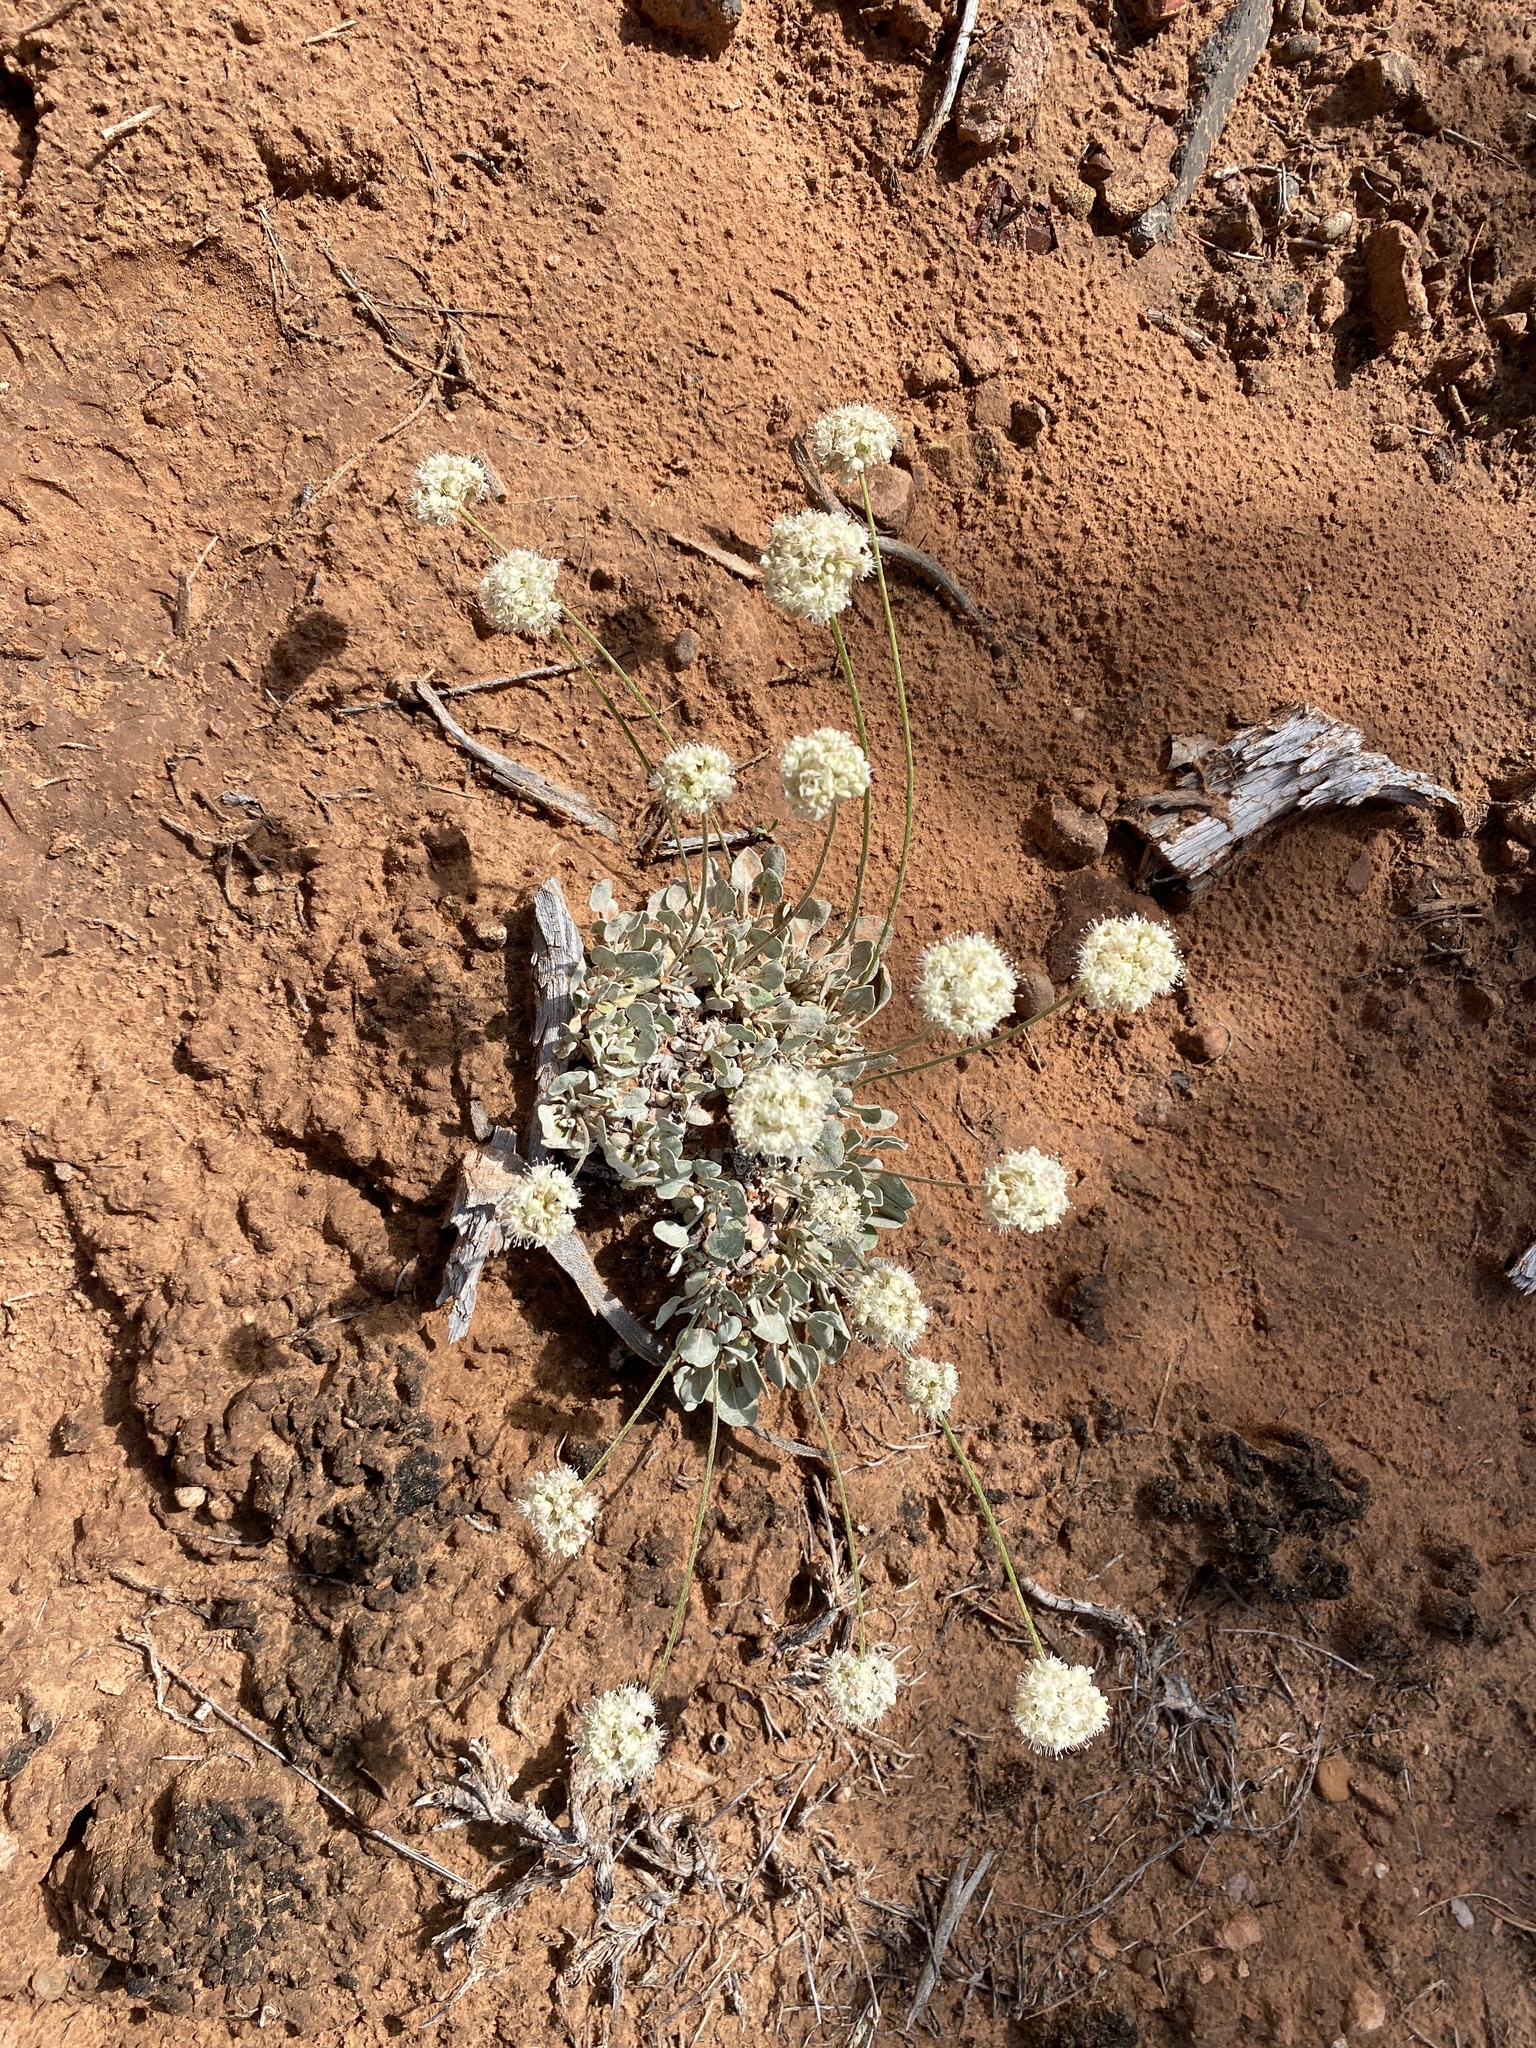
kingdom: Plantae
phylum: Tracheophyta
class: Magnoliopsida
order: Caryophyllales
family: Polygonaceae
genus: Eriogonum
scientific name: Eriogonum ovalifolium
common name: Cushion buckwheat
